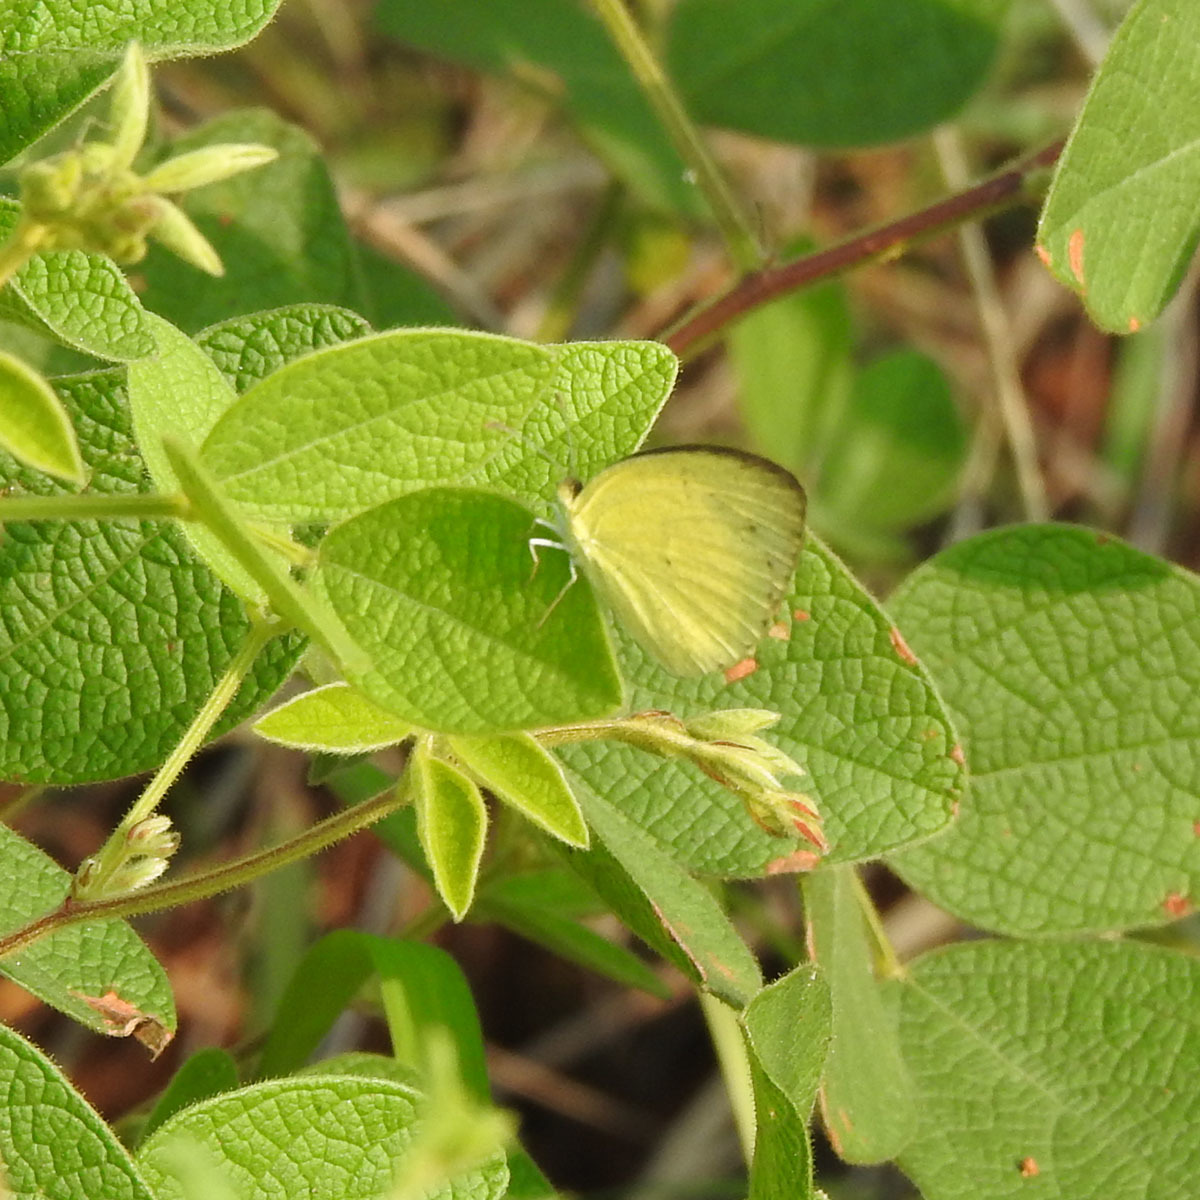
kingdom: Animalia
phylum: Arthropoda
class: Insecta
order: Lepidoptera
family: Pieridae
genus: Eurema
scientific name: Eurema brigitta
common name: Small grass yellow
